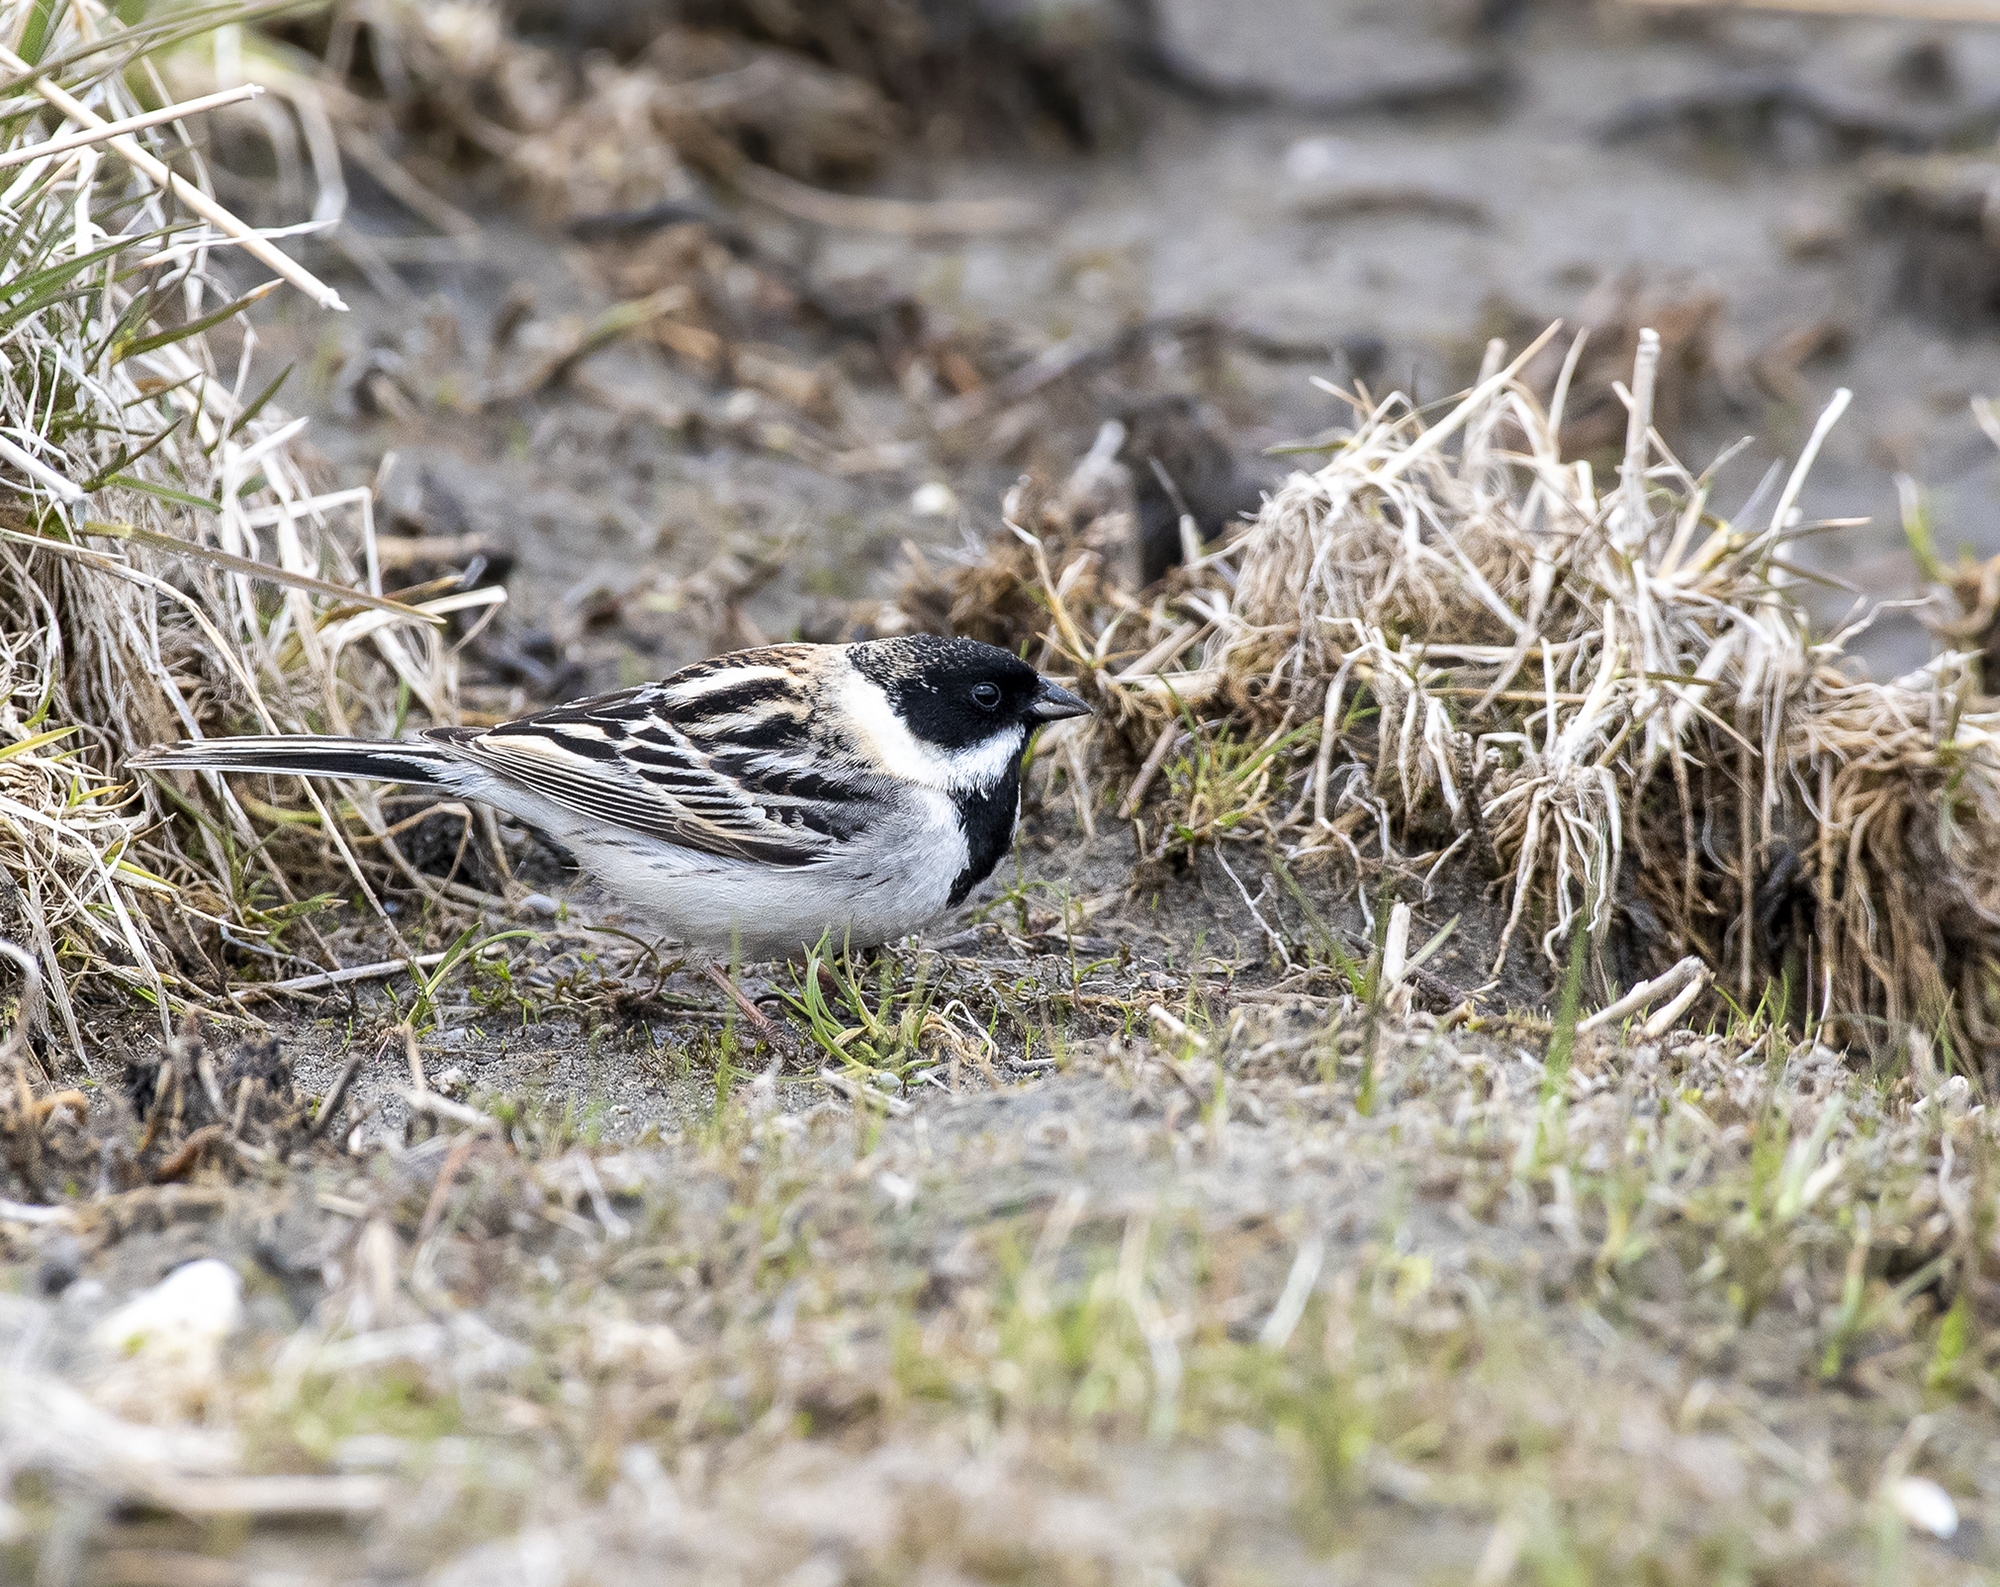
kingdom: Animalia
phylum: Chordata
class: Aves
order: Passeriformes
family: Emberizidae
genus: Emberiza
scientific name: Emberiza pallasi
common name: Pallas's reed bunting
